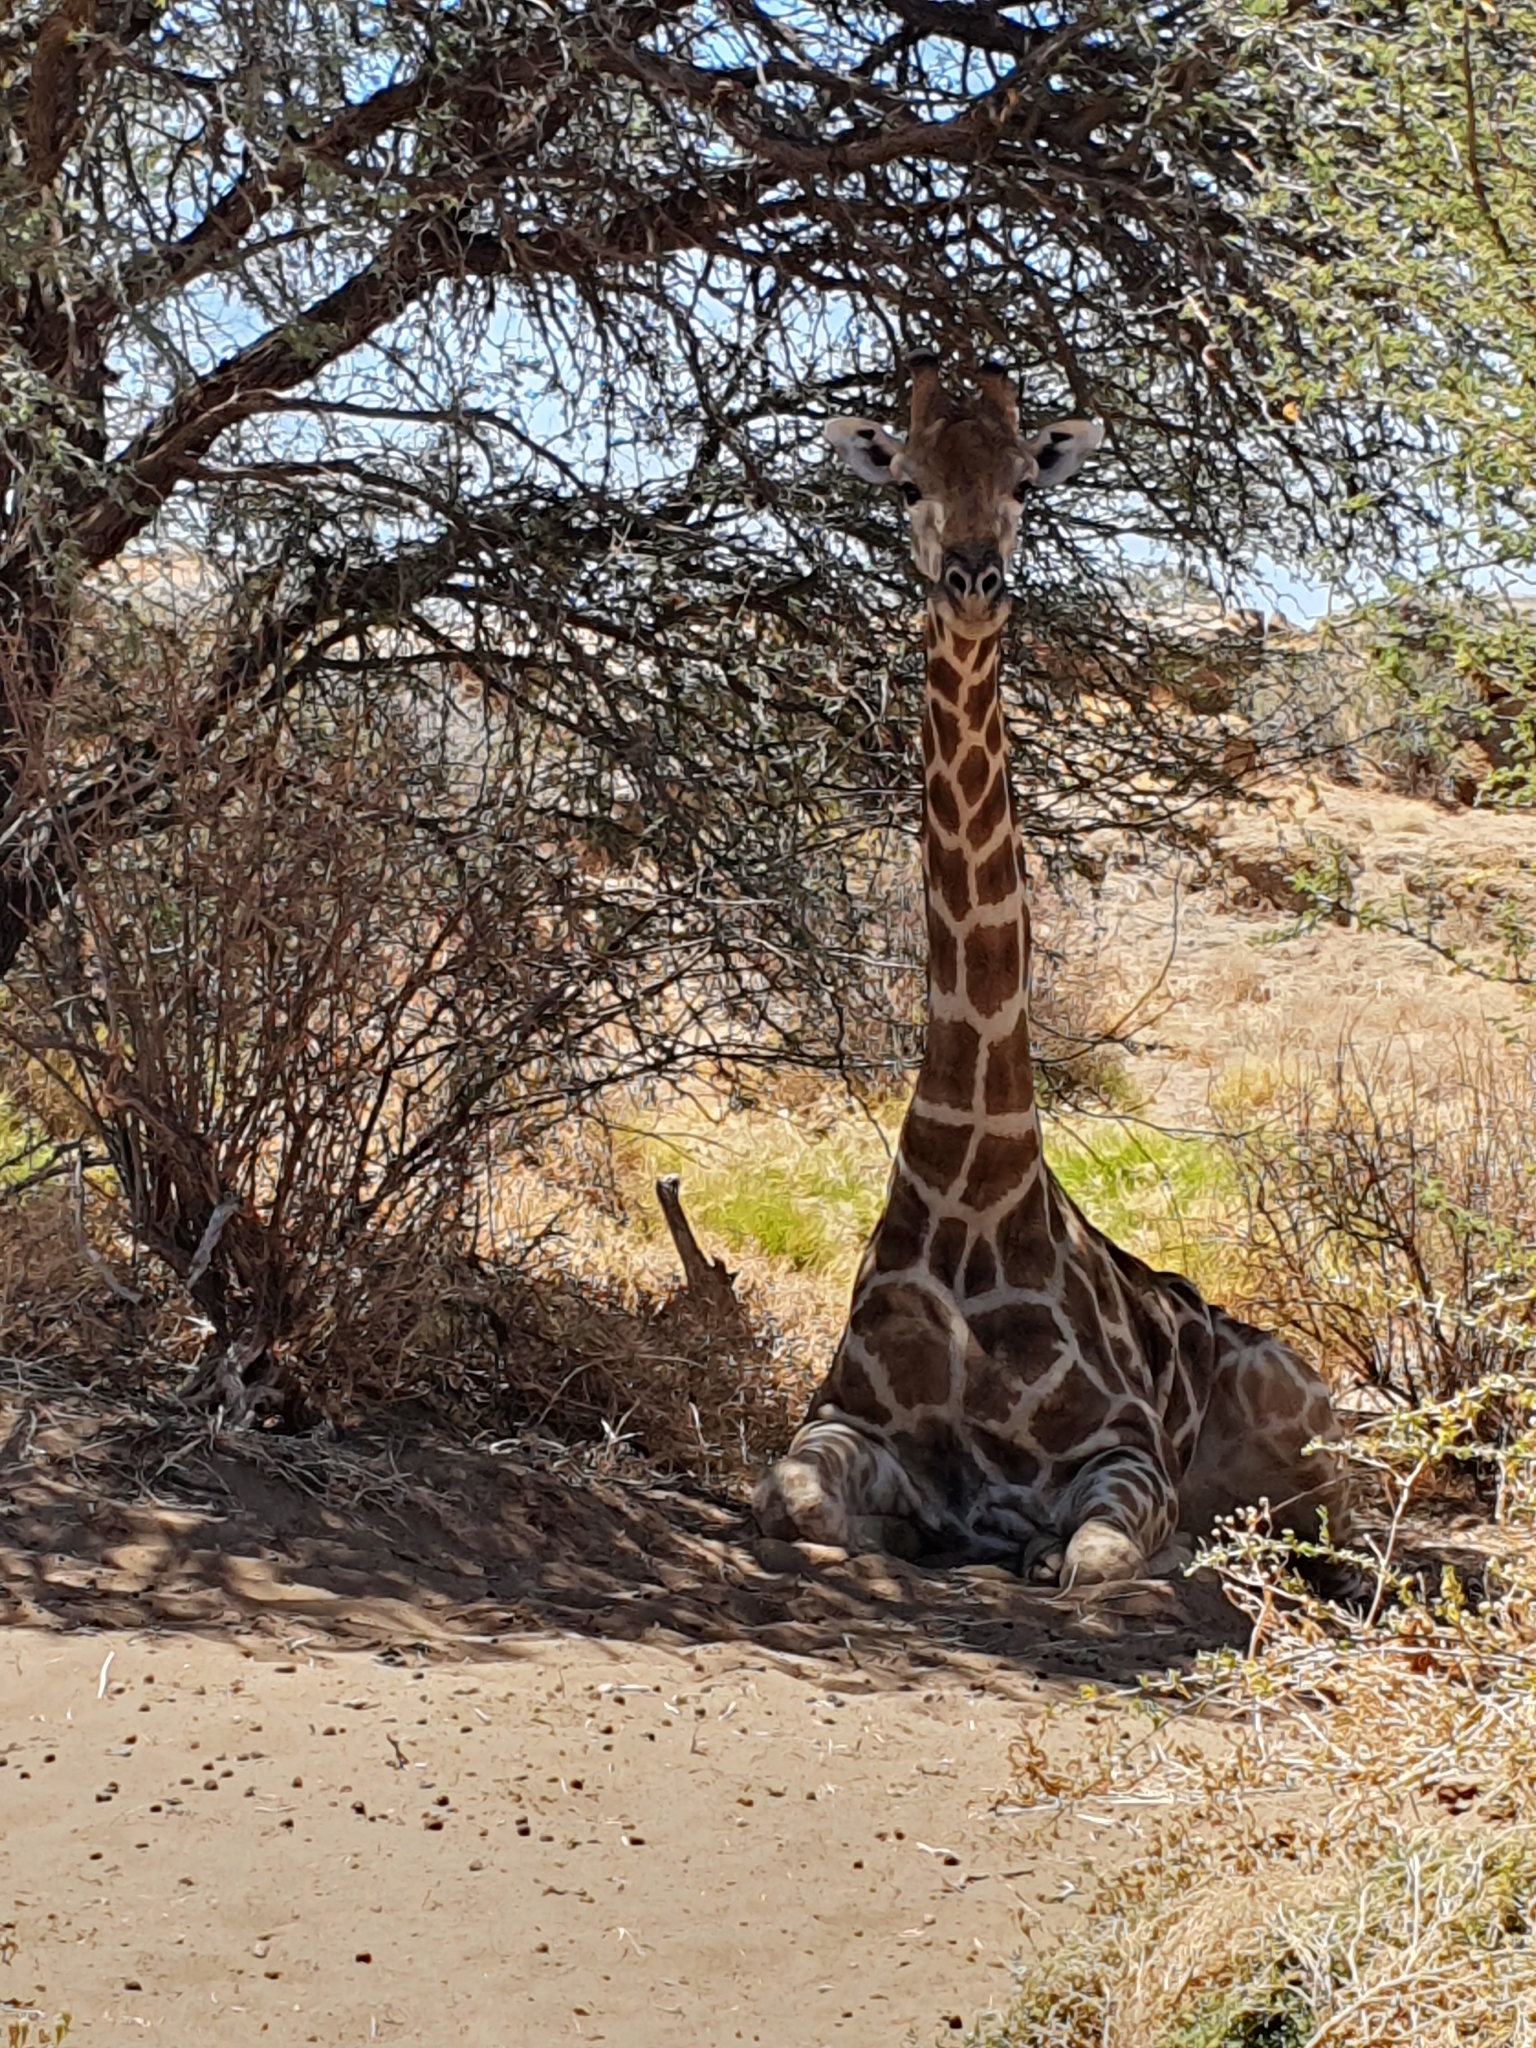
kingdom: Animalia
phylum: Chordata
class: Mammalia
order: Artiodactyla
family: Giraffidae
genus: Giraffa
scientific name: Giraffa giraffa
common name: Southern giraffe
